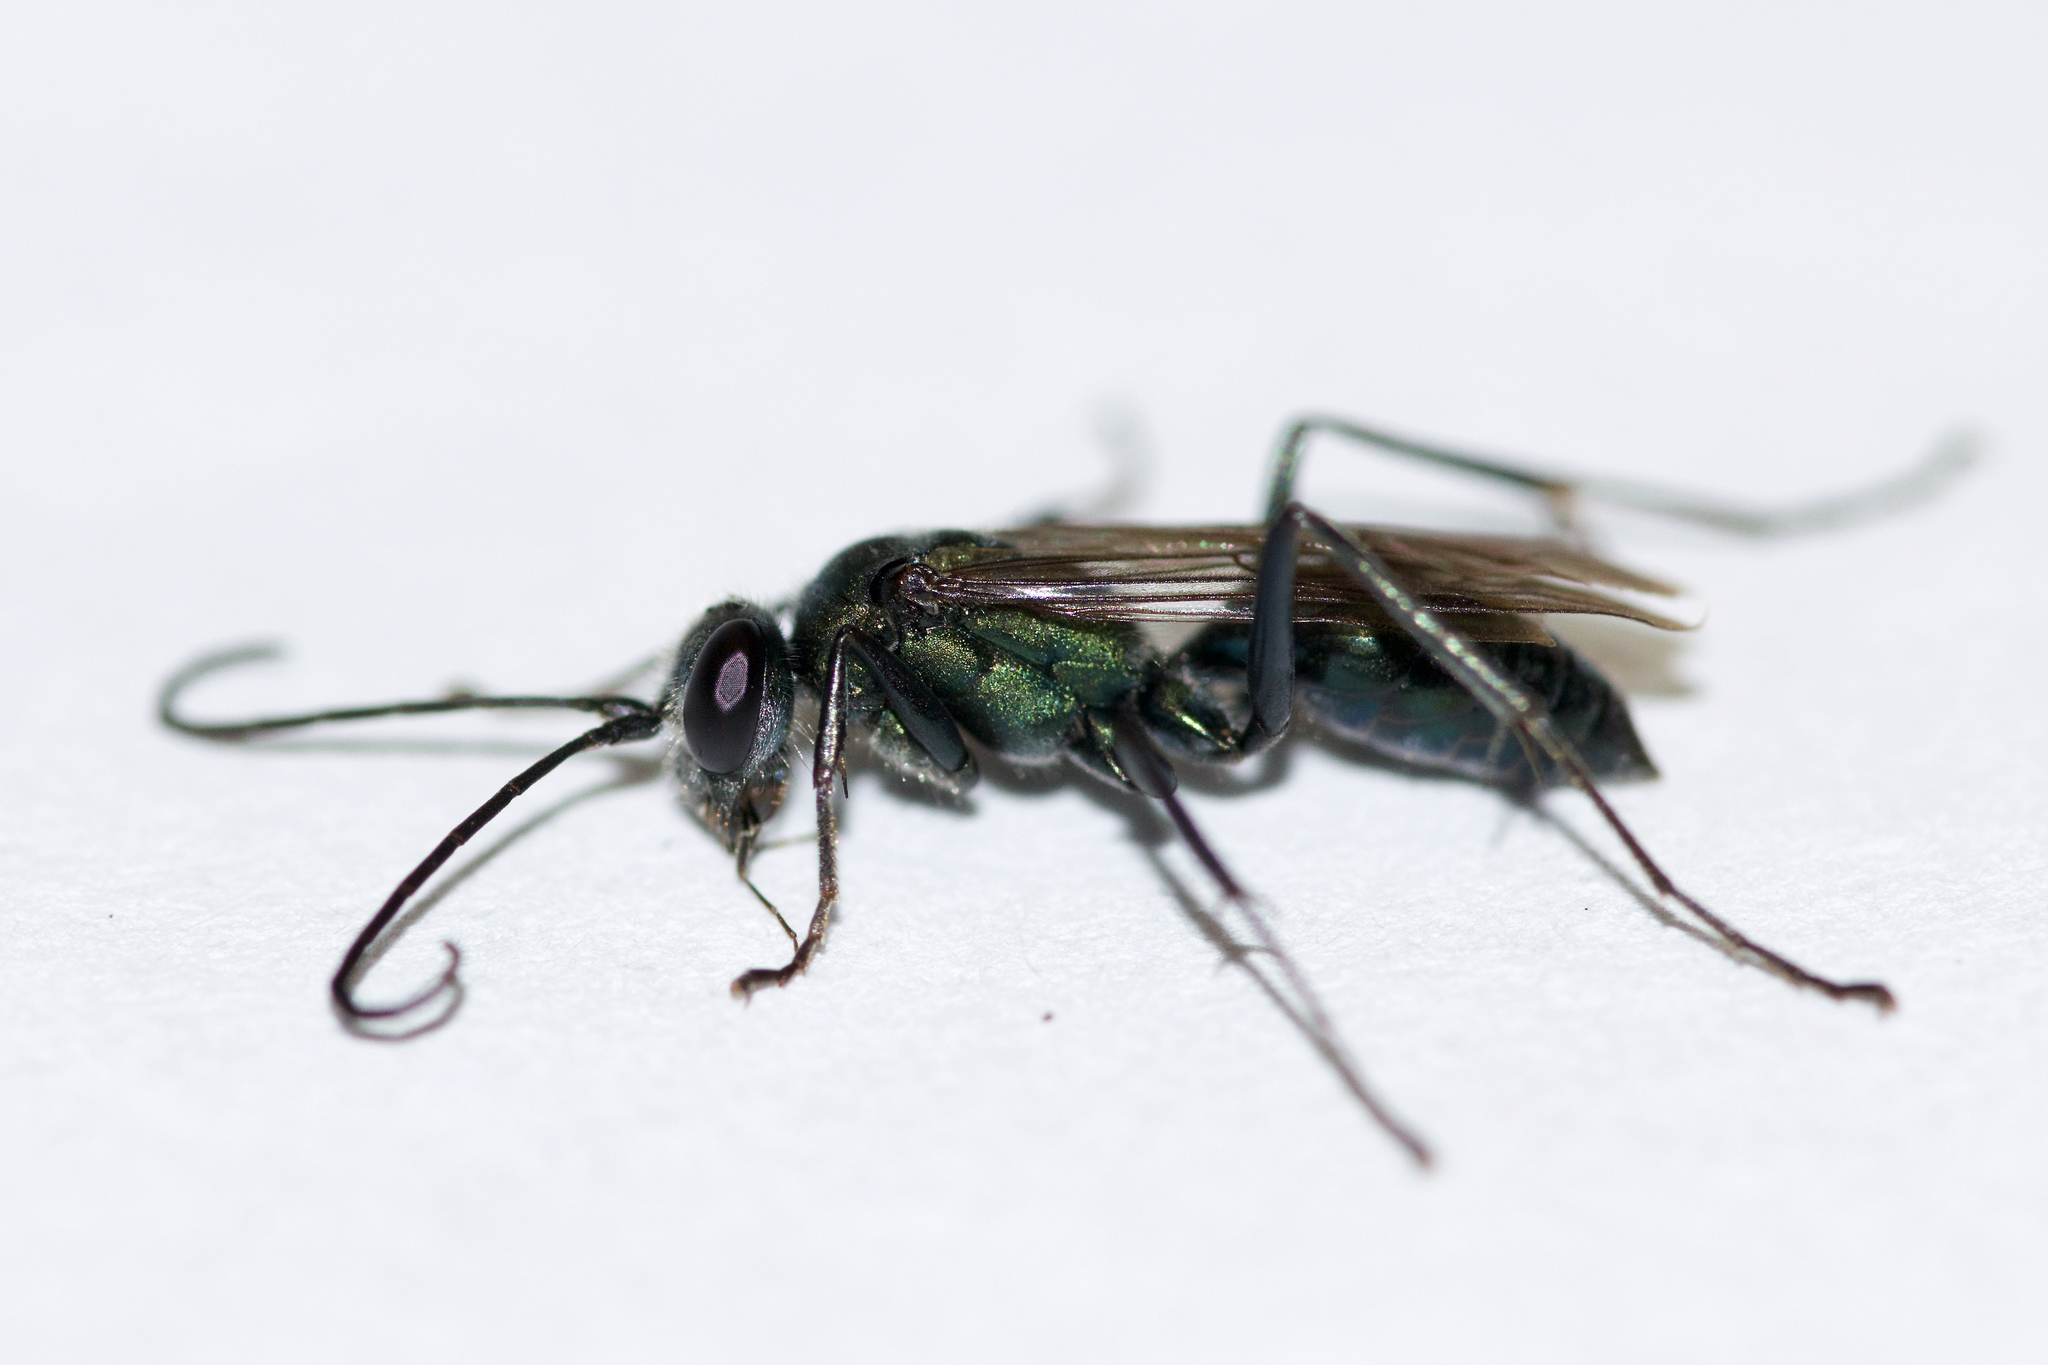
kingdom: Animalia
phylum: Arthropoda
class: Insecta
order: Hymenoptera
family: Pompilidae
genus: Auplopus
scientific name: Auplopus architectus
